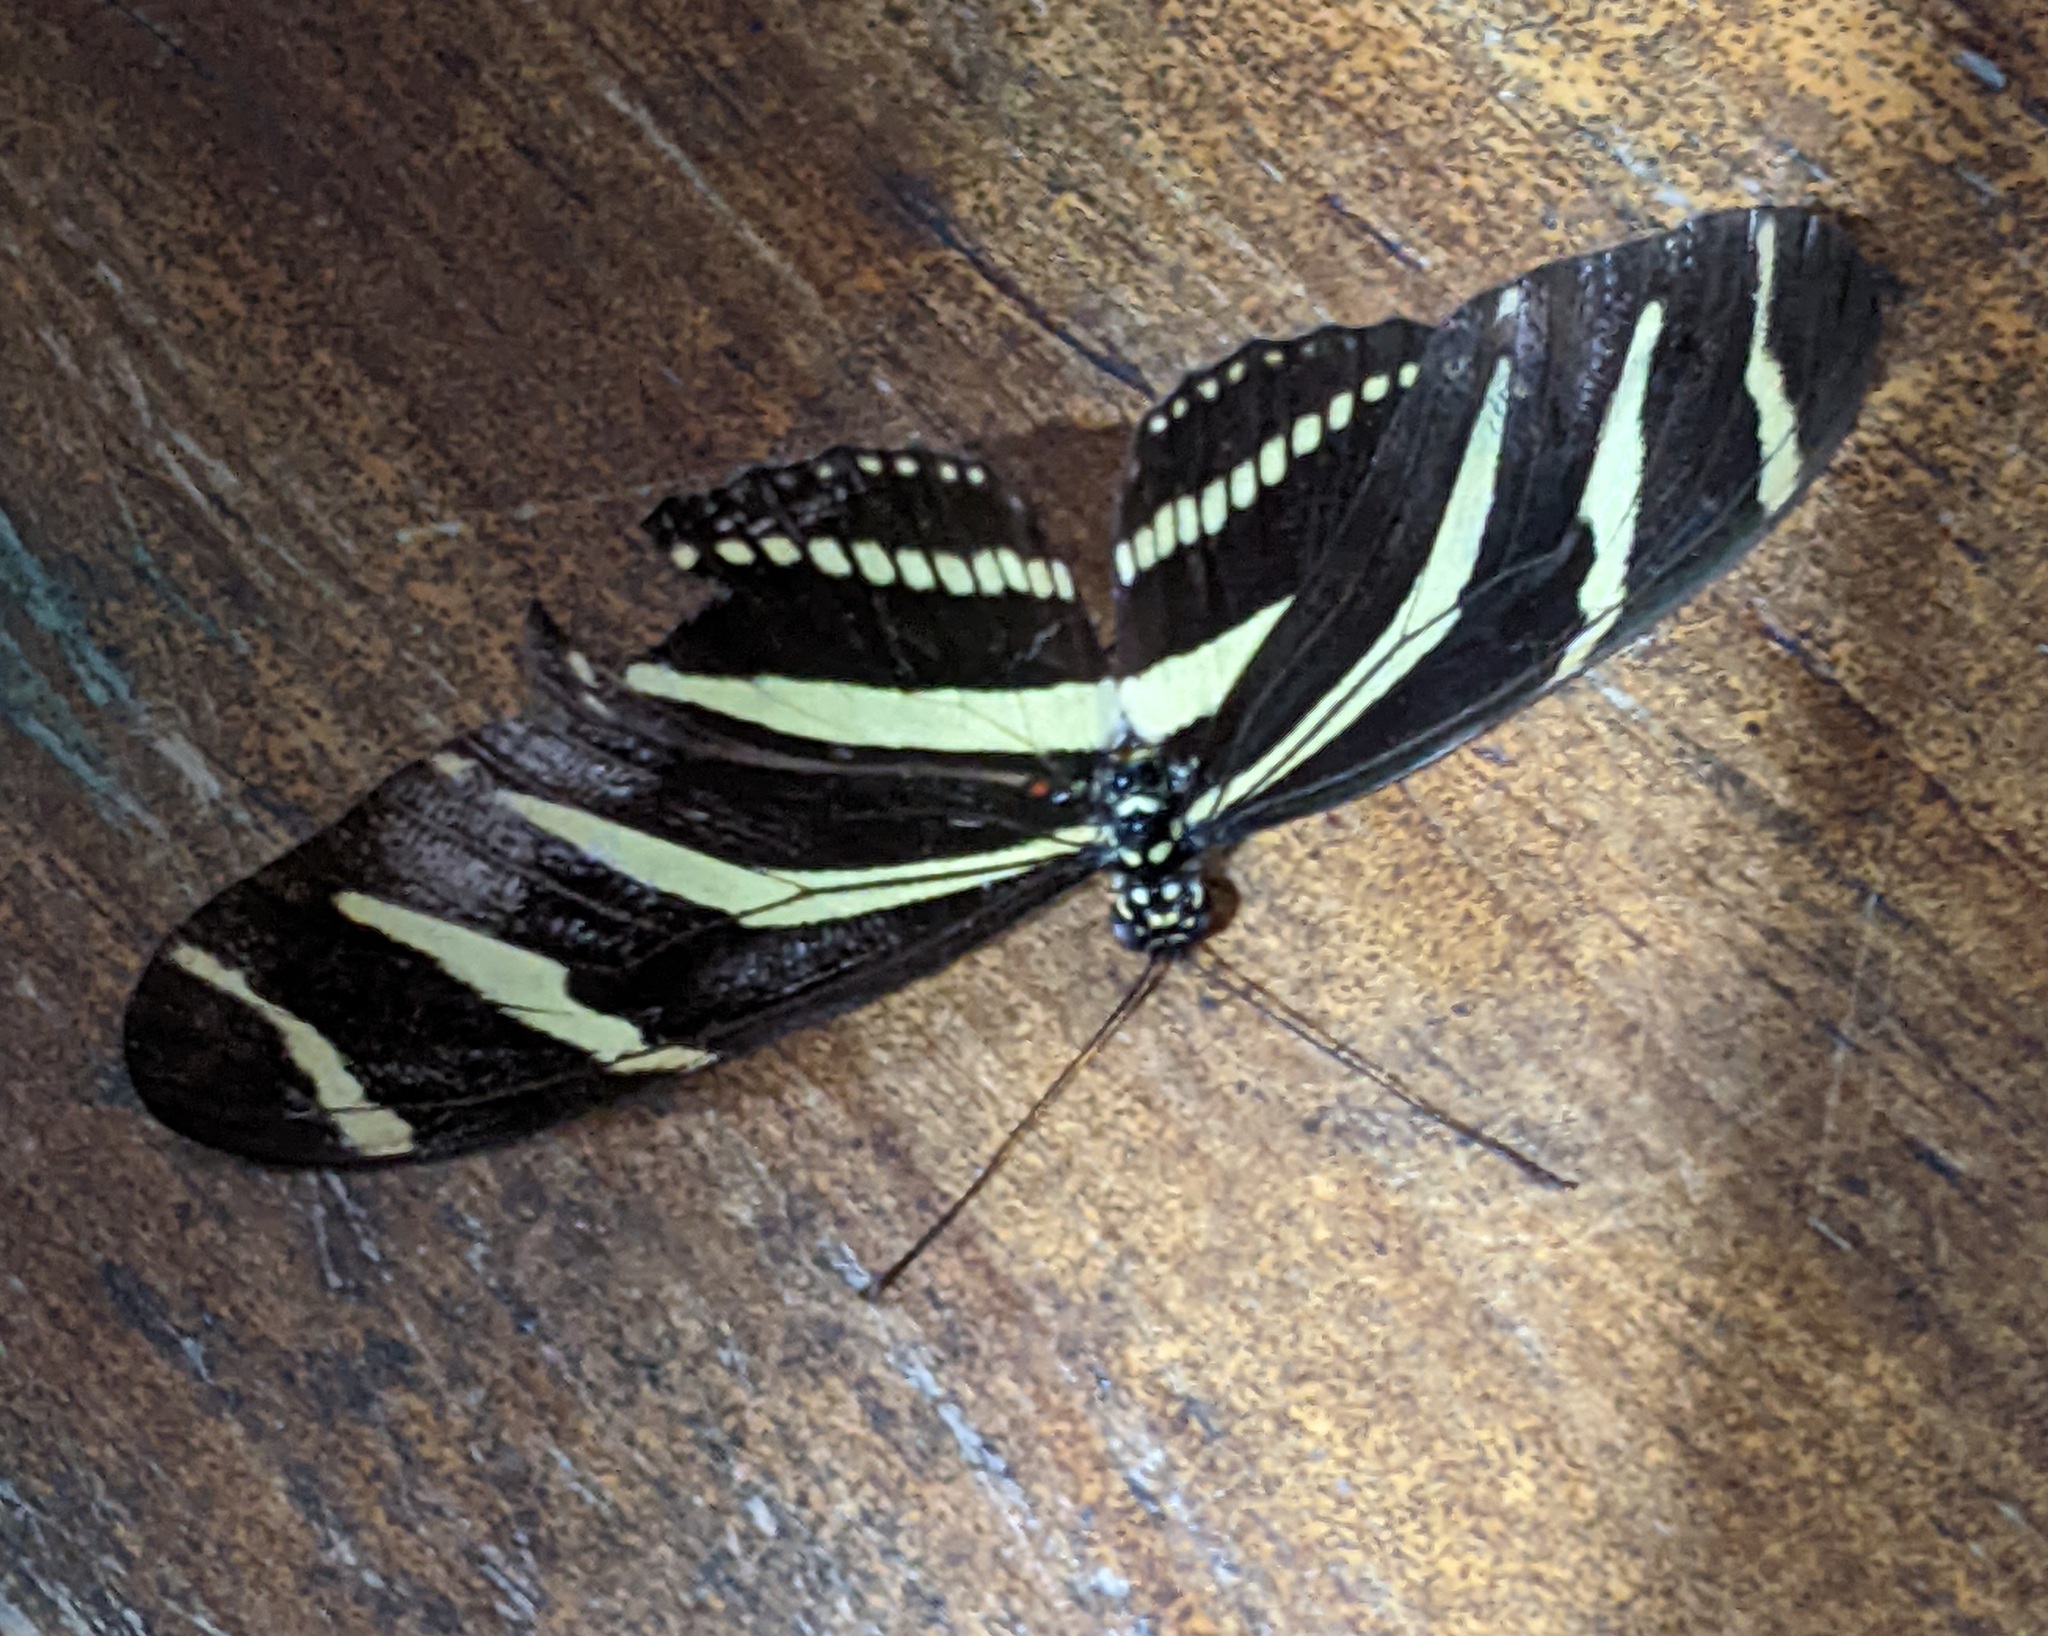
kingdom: Animalia
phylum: Arthropoda
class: Insecta
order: Lepidoptera
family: Nymphalidae
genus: Heliconius
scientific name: Heliconius charithonia
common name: Zebra long wing
